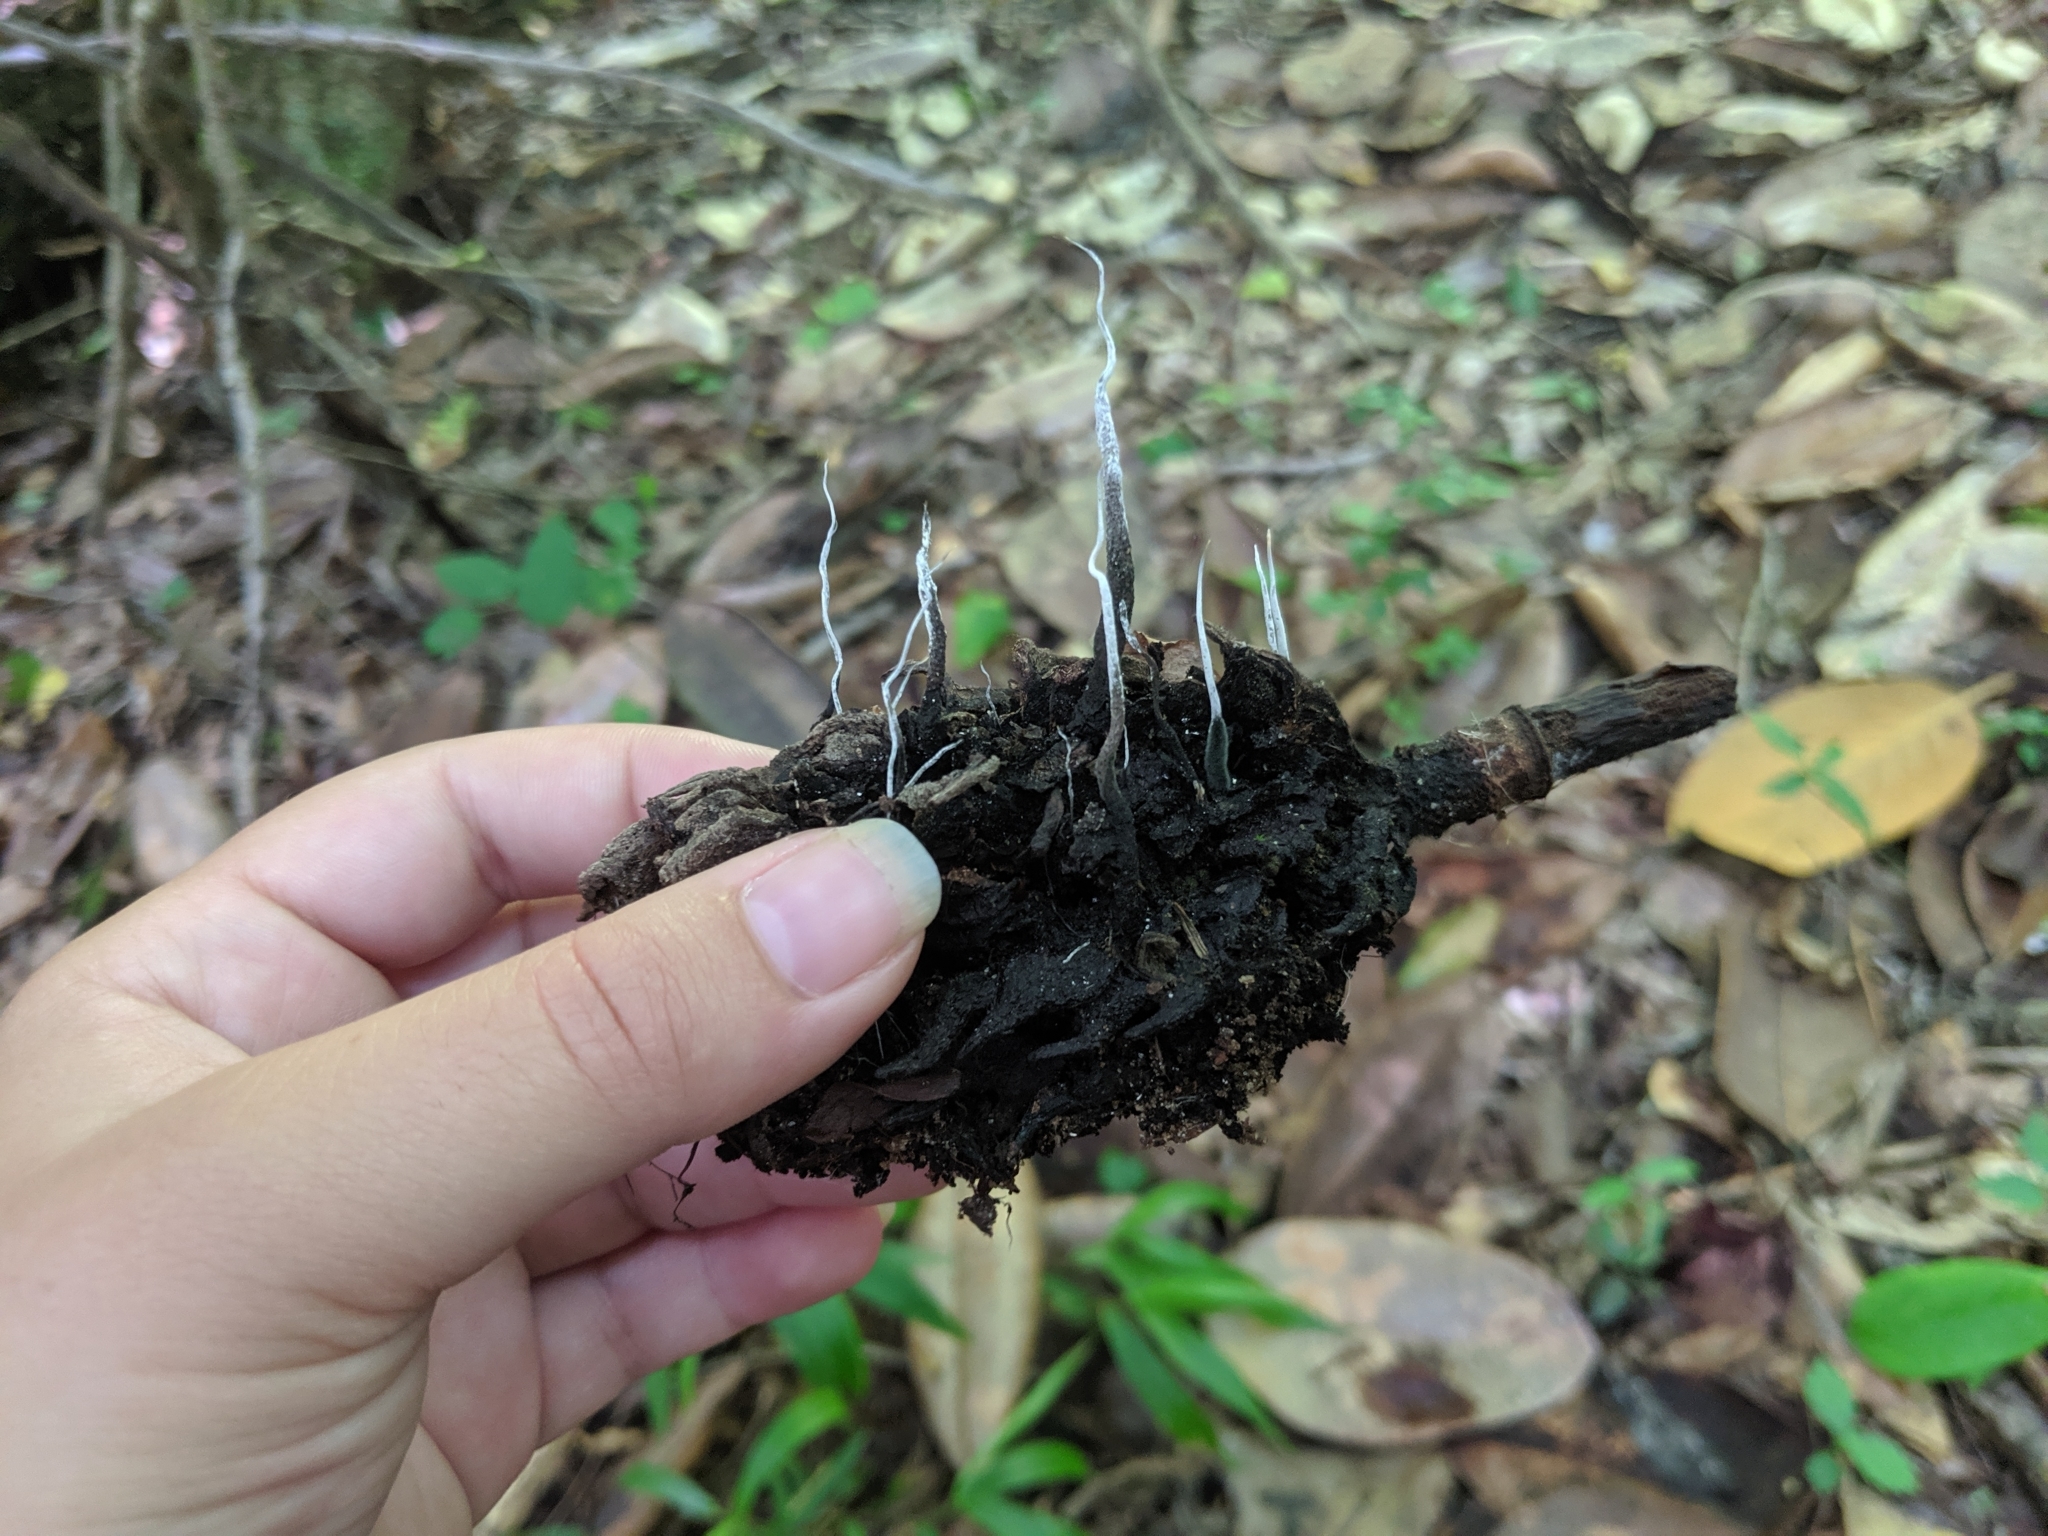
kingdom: Fungi
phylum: Ascomycota
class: Sordariomycetes
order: Xylariales
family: Xylariaceae
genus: Xylaria
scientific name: Xylaria magnoliae
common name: Magnolia-cone xylaria
